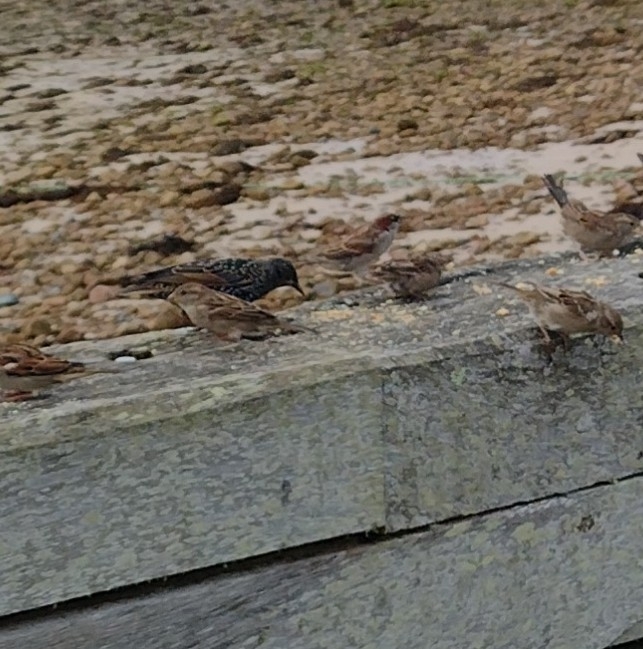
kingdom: Animalia
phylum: Chordata
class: Aves
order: Passeriformes
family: Sturnidae
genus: Sturnus
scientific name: Sturnus vulgaris
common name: Common starling
